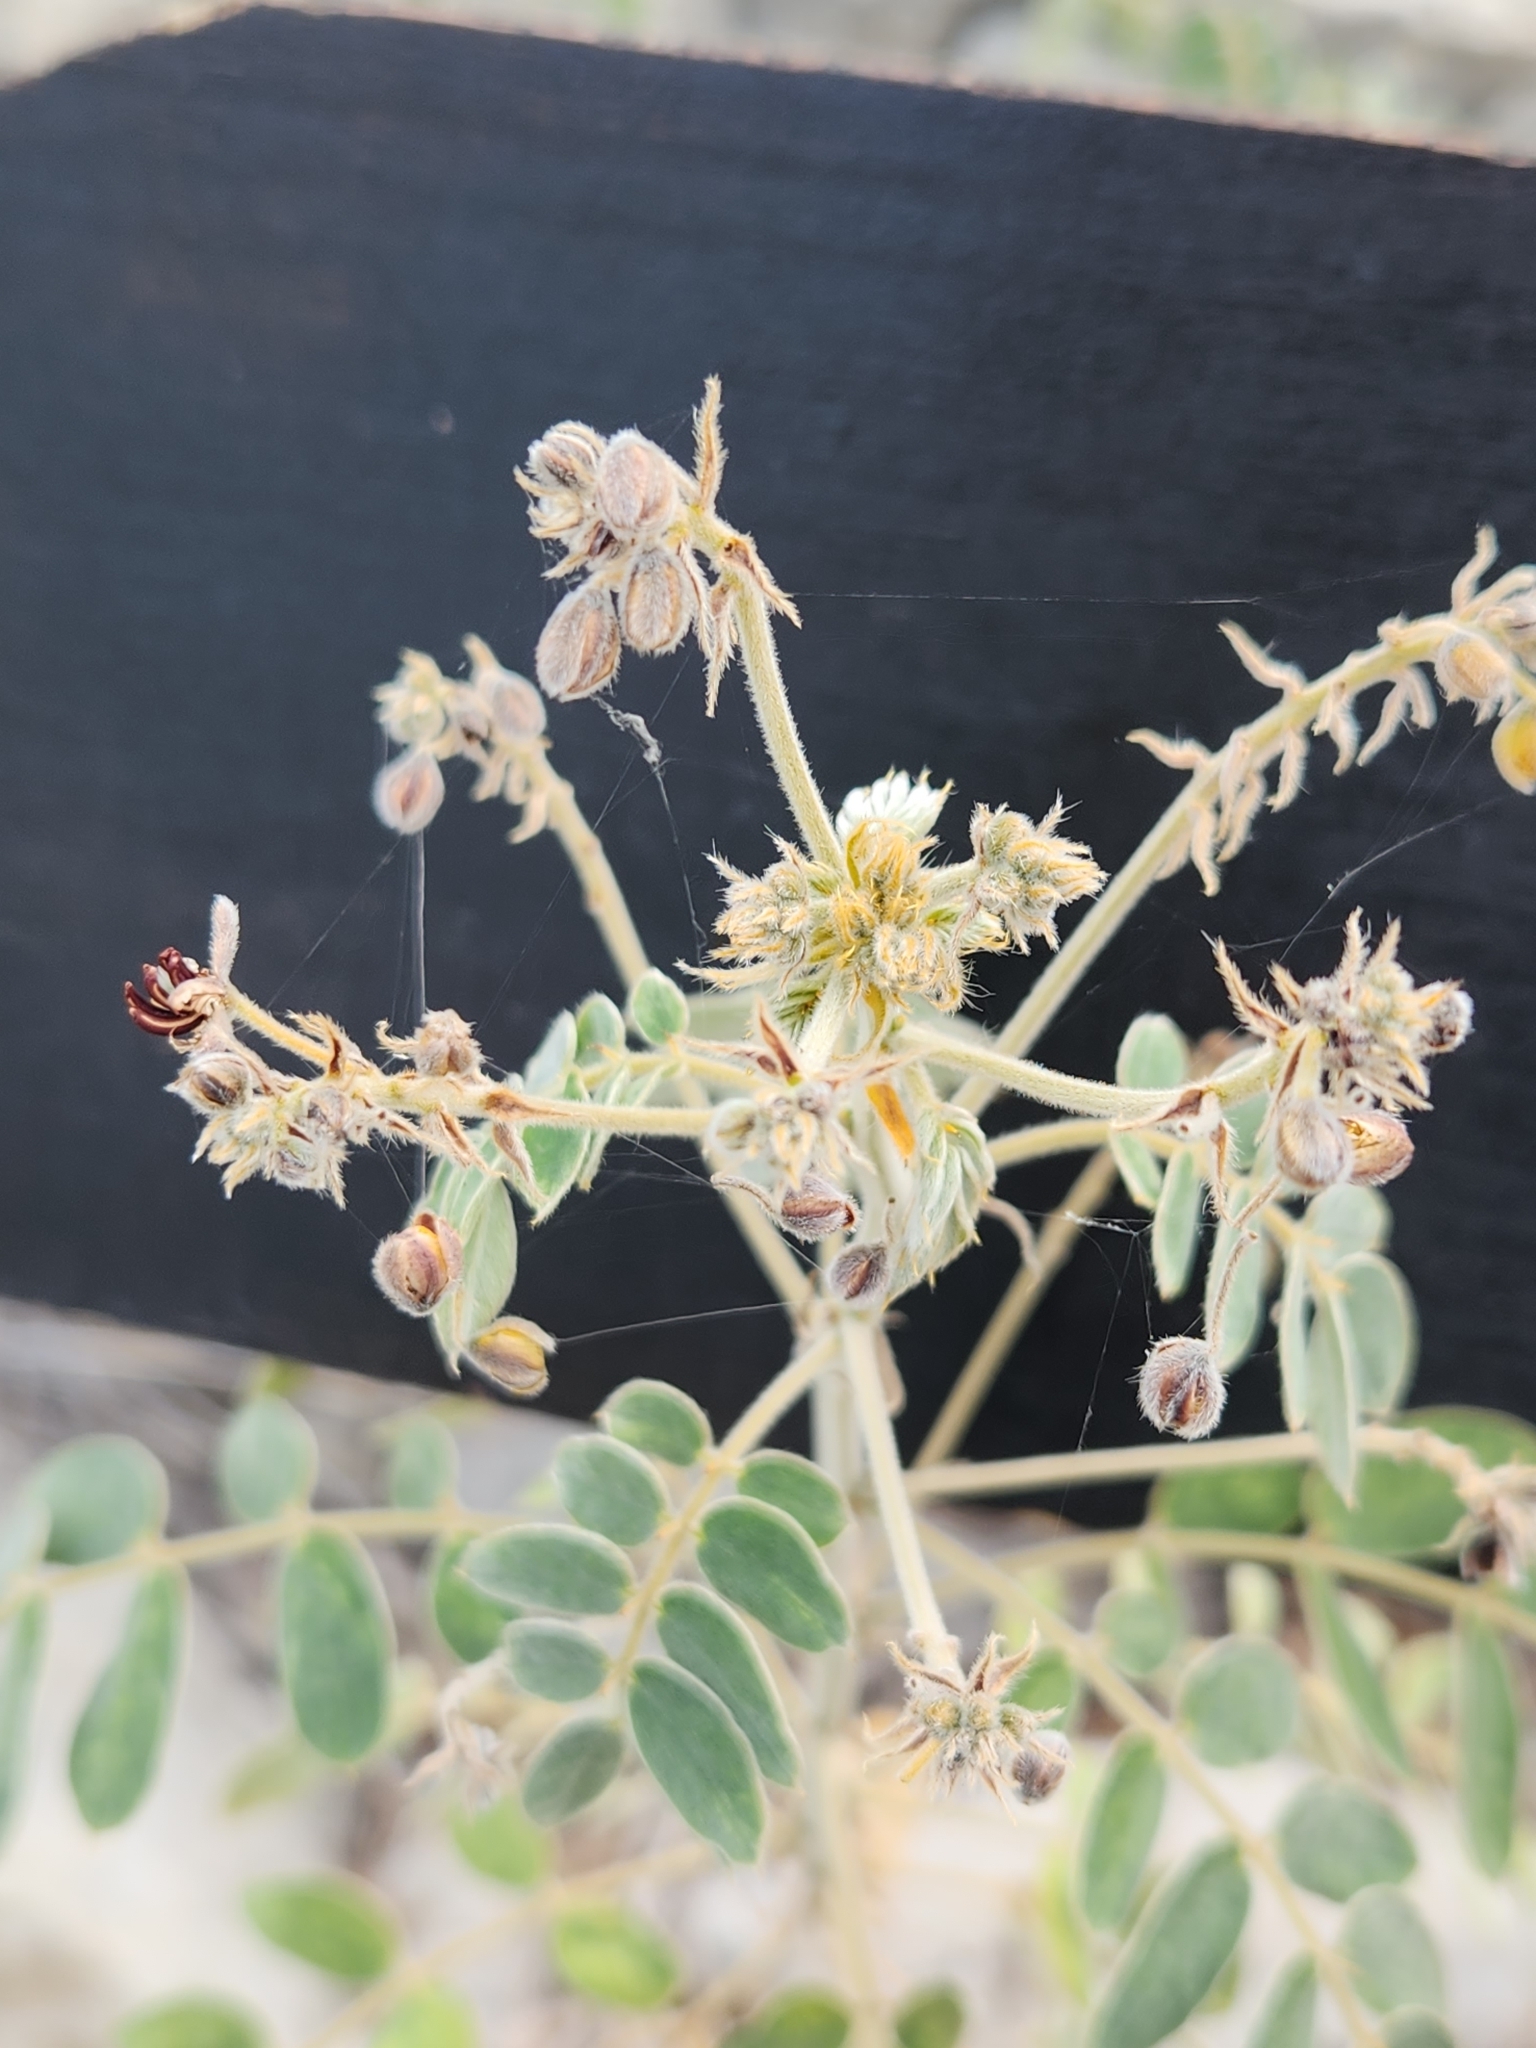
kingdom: Plantae
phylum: Tracheophyta
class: Magnoliopsida
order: Fabales
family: Fabaceae
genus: Senna
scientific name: Senna lindheimeriana
